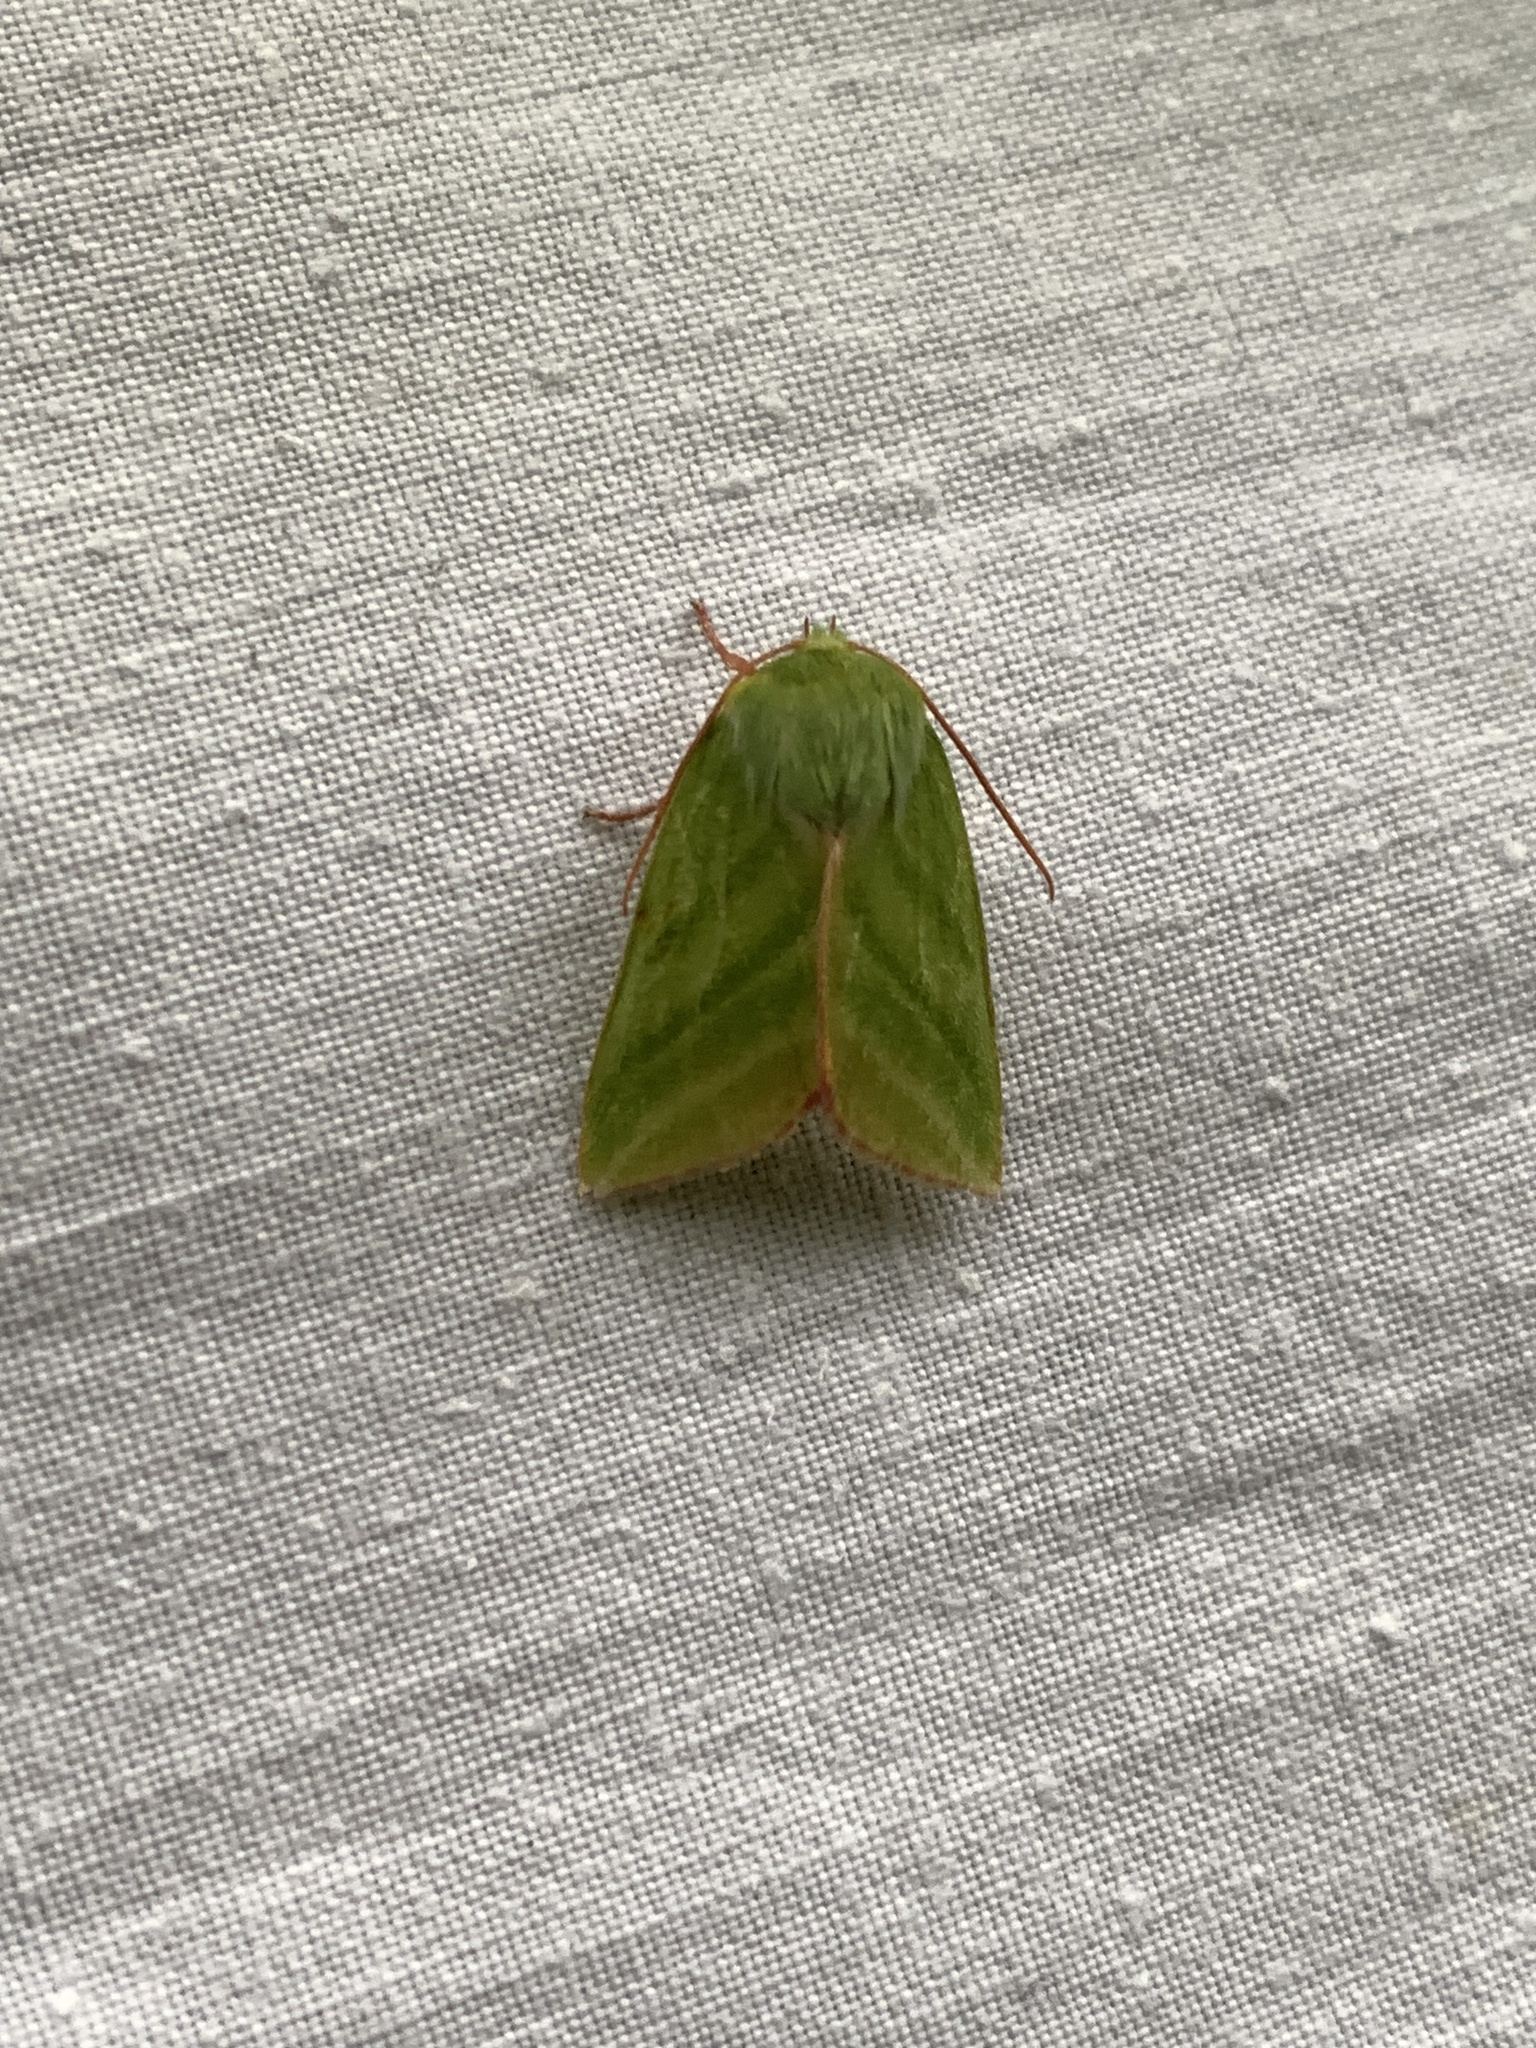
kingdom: Animalia
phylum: Arthropoda
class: Insecta
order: Lepidoptera
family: Nolidae
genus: Pseudoips
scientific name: Pseudoips prasinana
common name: Green silver-lines
